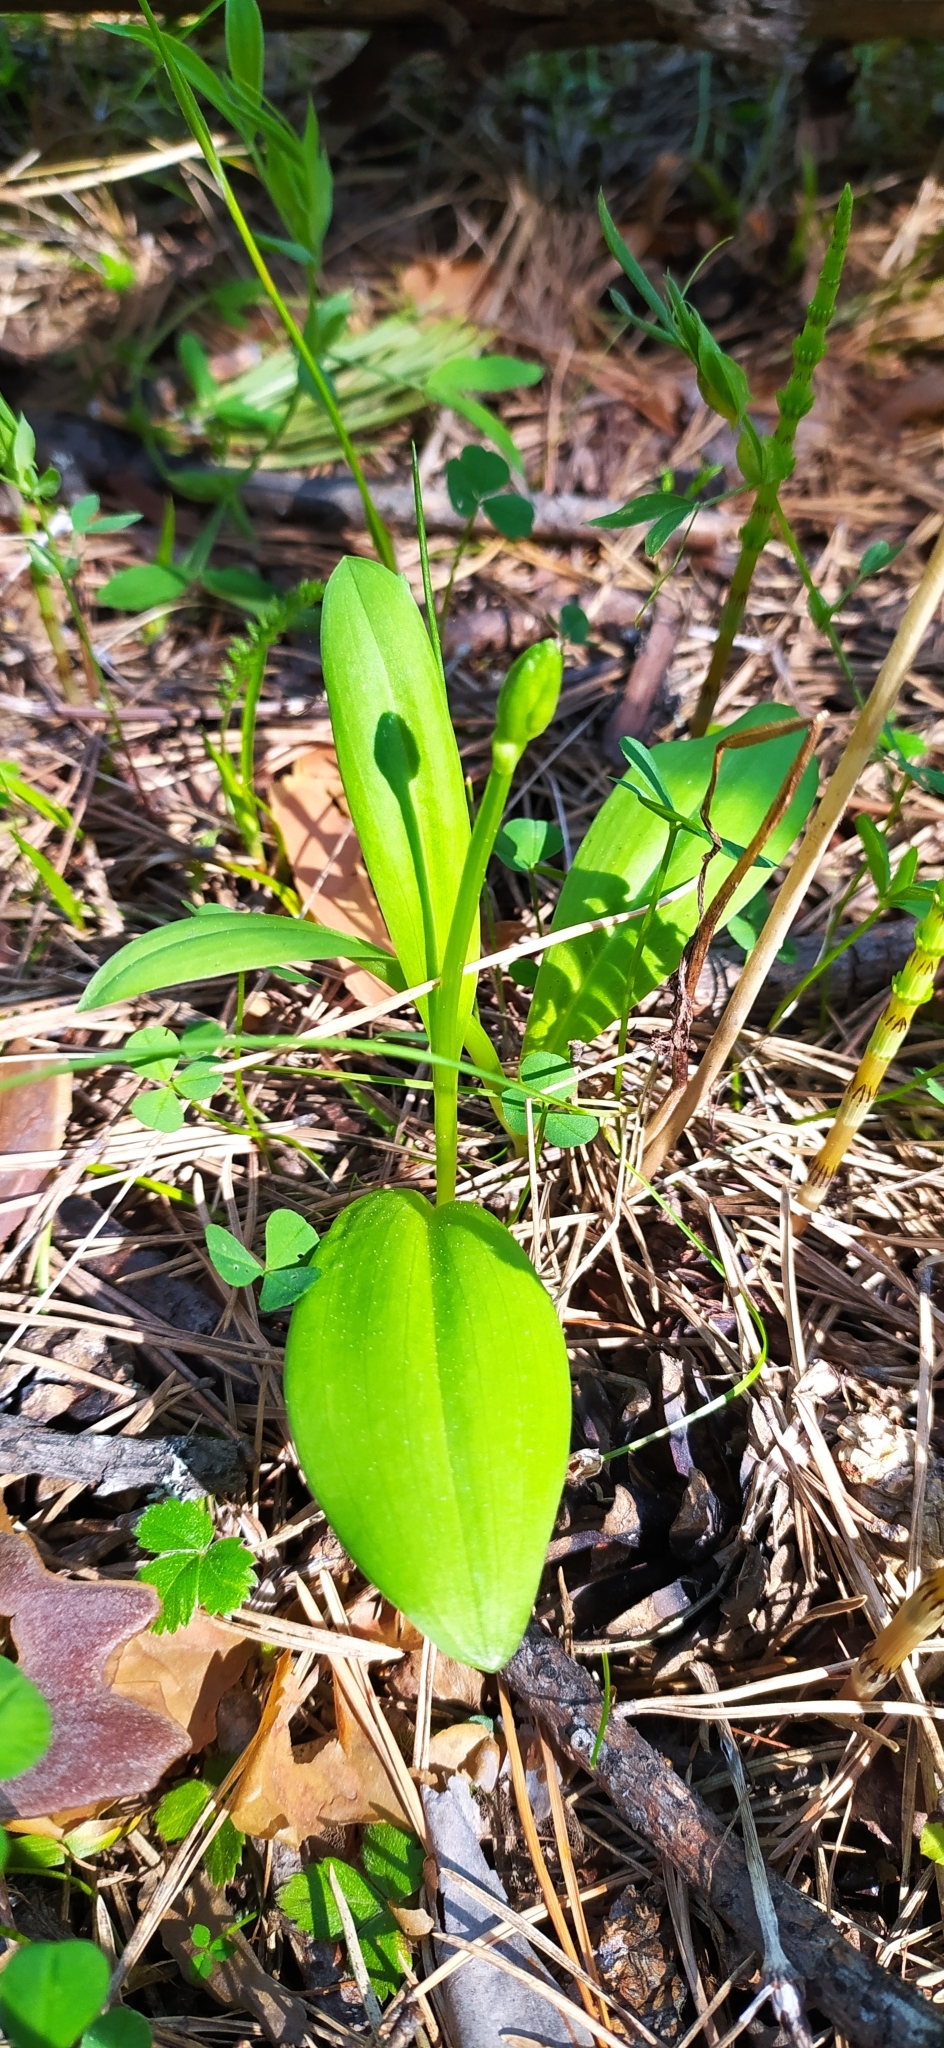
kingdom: Plantae
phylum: Tracheophyta
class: Liliopsida
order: Asparagales
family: Orchidaceae
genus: Platanthera
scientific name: Platanthera bifolia
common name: Lesser butterfly-orchid
